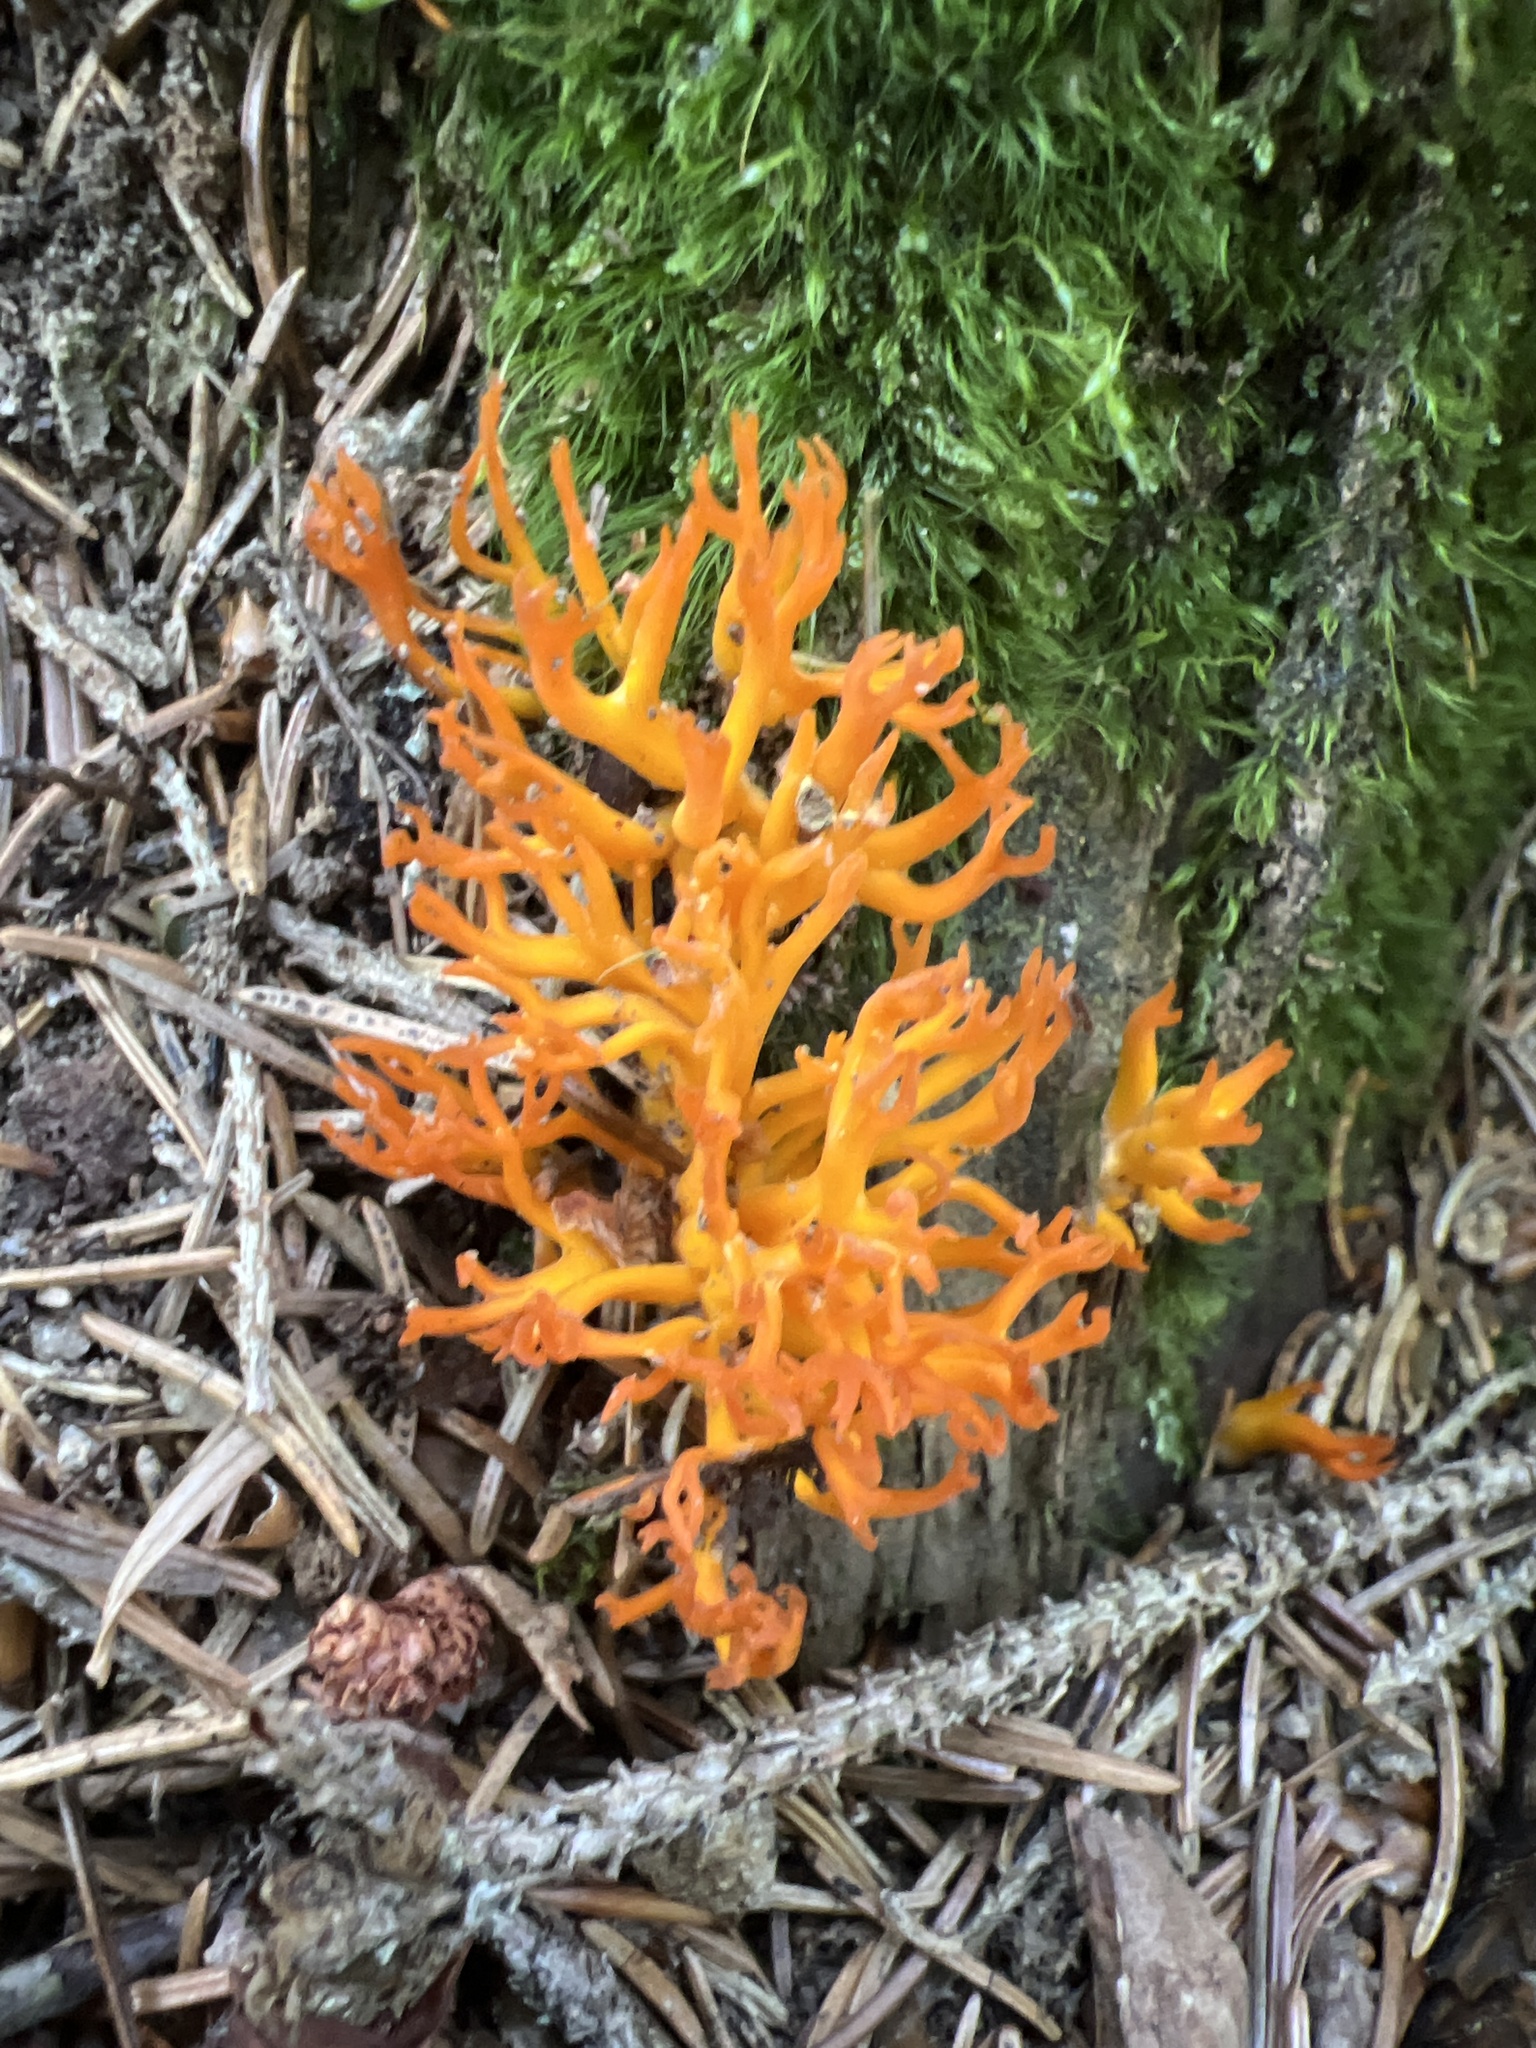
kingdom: Fungi
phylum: Basidiomycota
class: Dacrymycetes
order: Dacrymycetales
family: Dacrymycetaceae
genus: Calocera
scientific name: Calocera viscosa
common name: Yellow stagshorn
